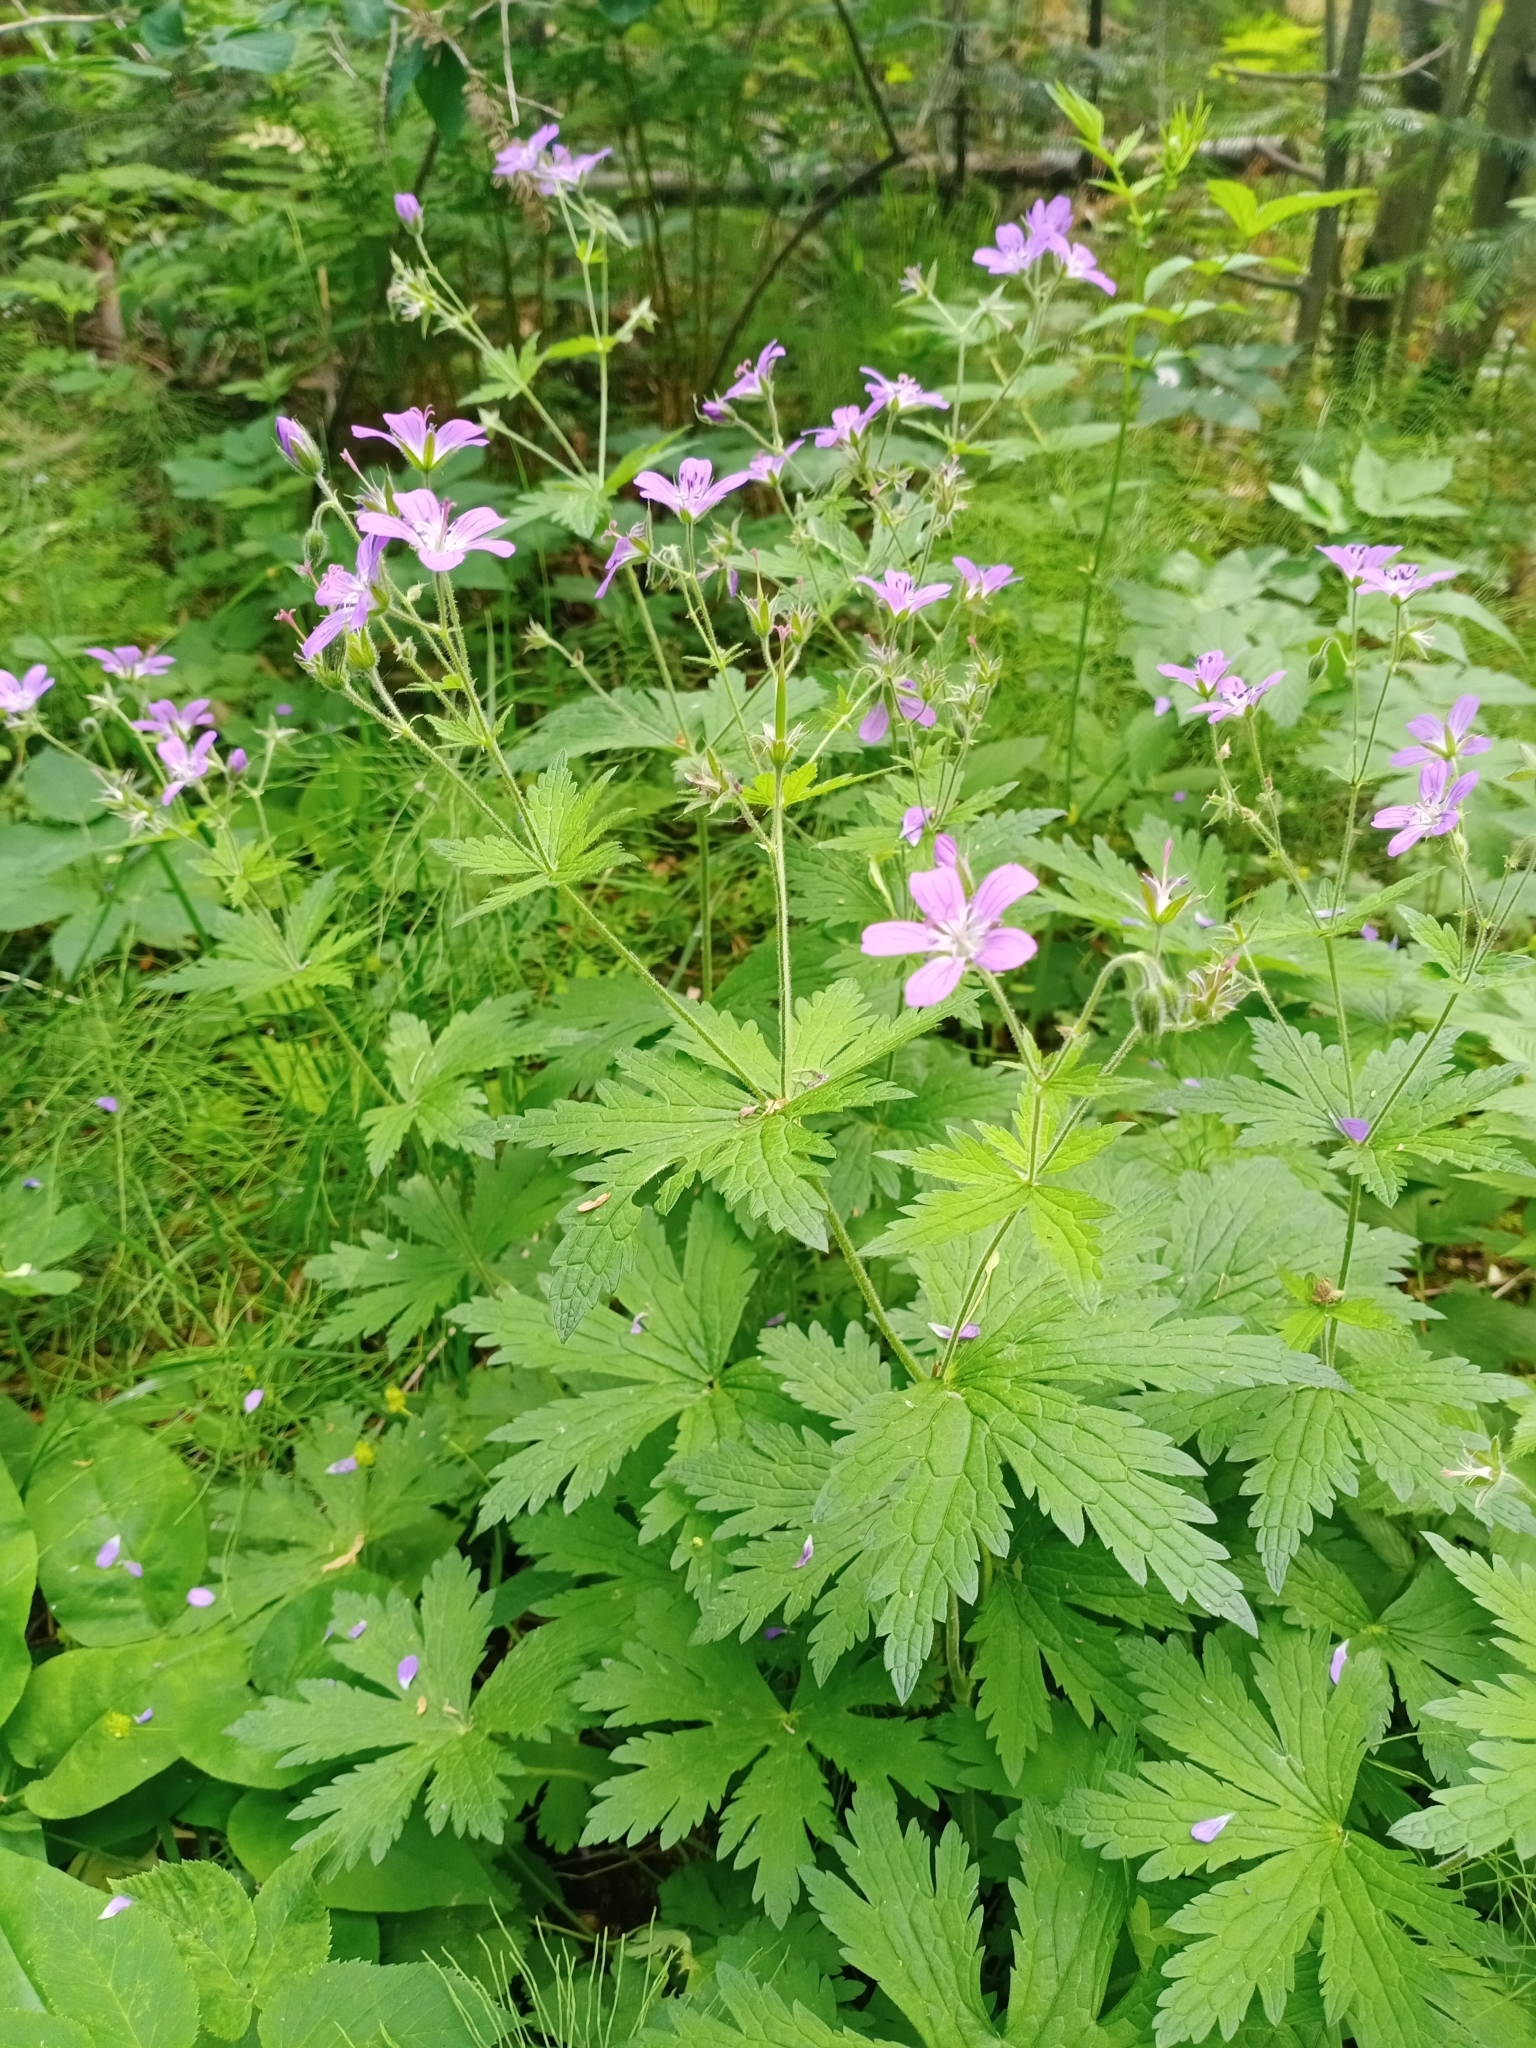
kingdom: Plantae
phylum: Tracheophyta
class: Magnoliopsida
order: Geraniales
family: Geraniaceae
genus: Geranium
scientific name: Geranium sylvaticum
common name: Wood crane's-bill
